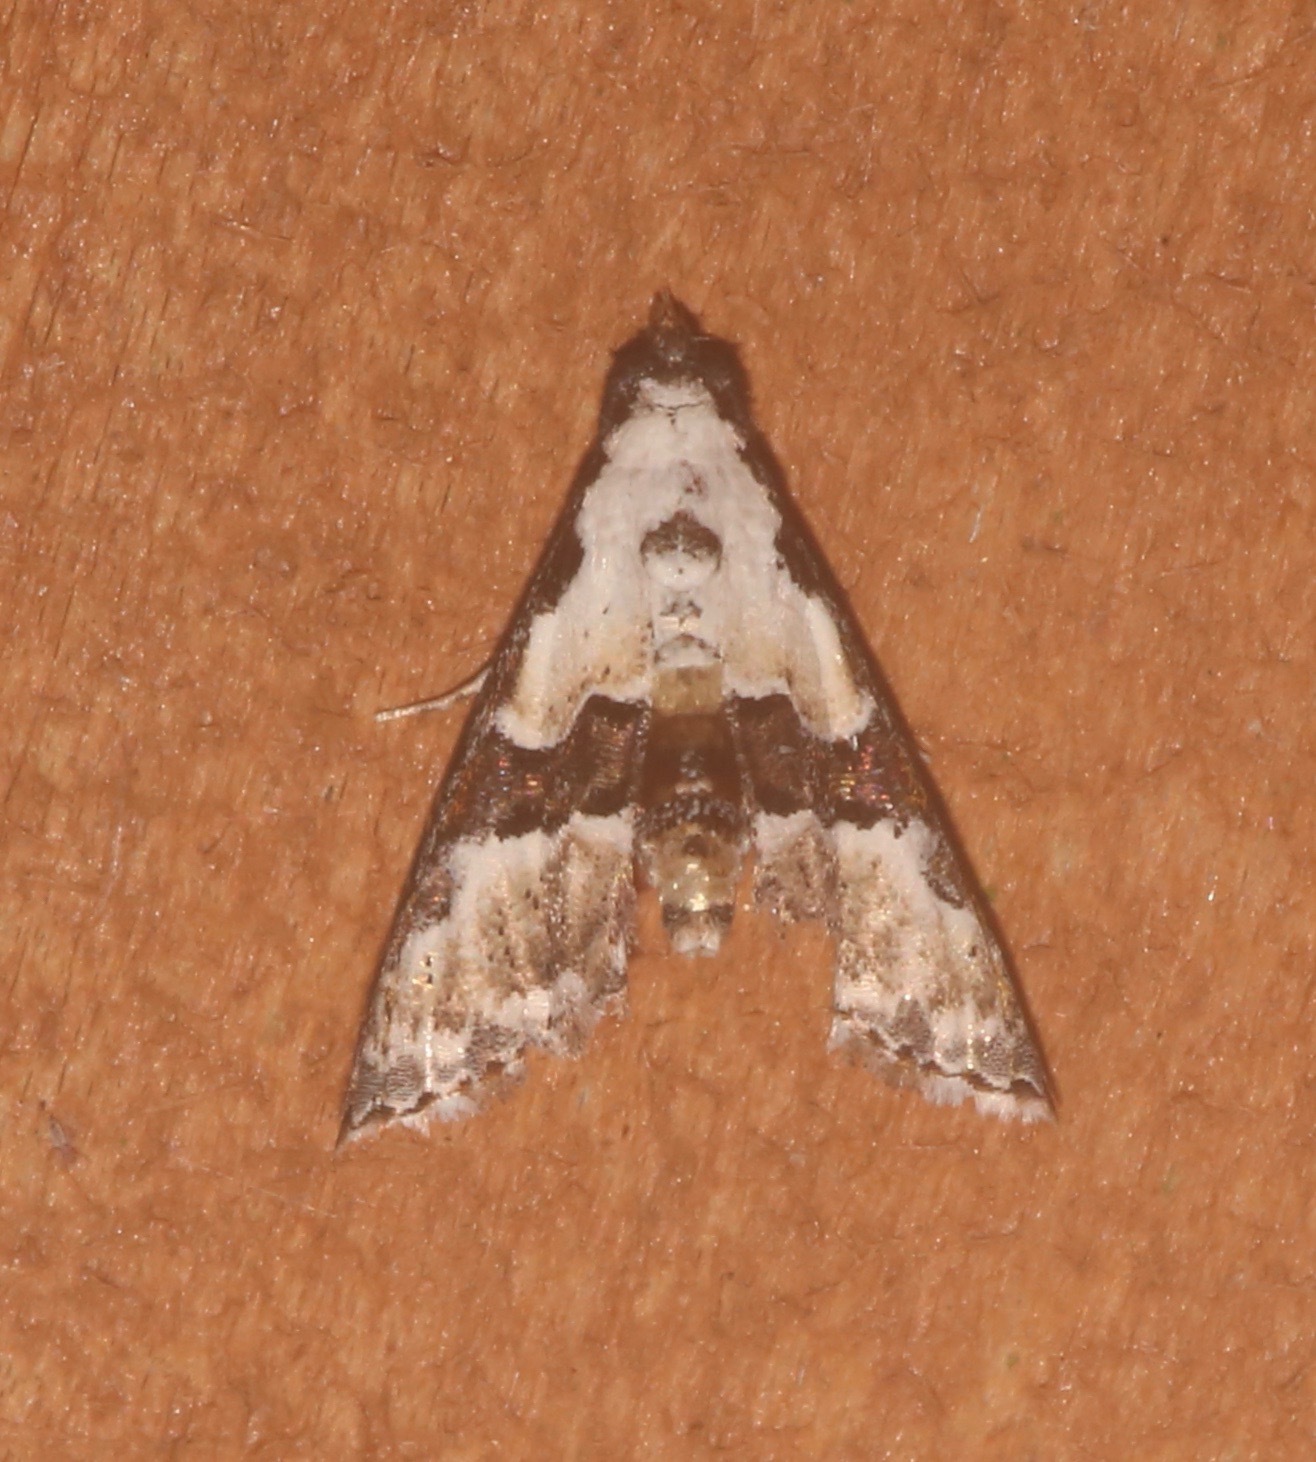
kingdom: Animalia
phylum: Arthropoda
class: Insecta
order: Lepidoptera
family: Noctuidae
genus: Nigetia
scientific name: Nigetia formosalis
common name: Thin-winged owlet
